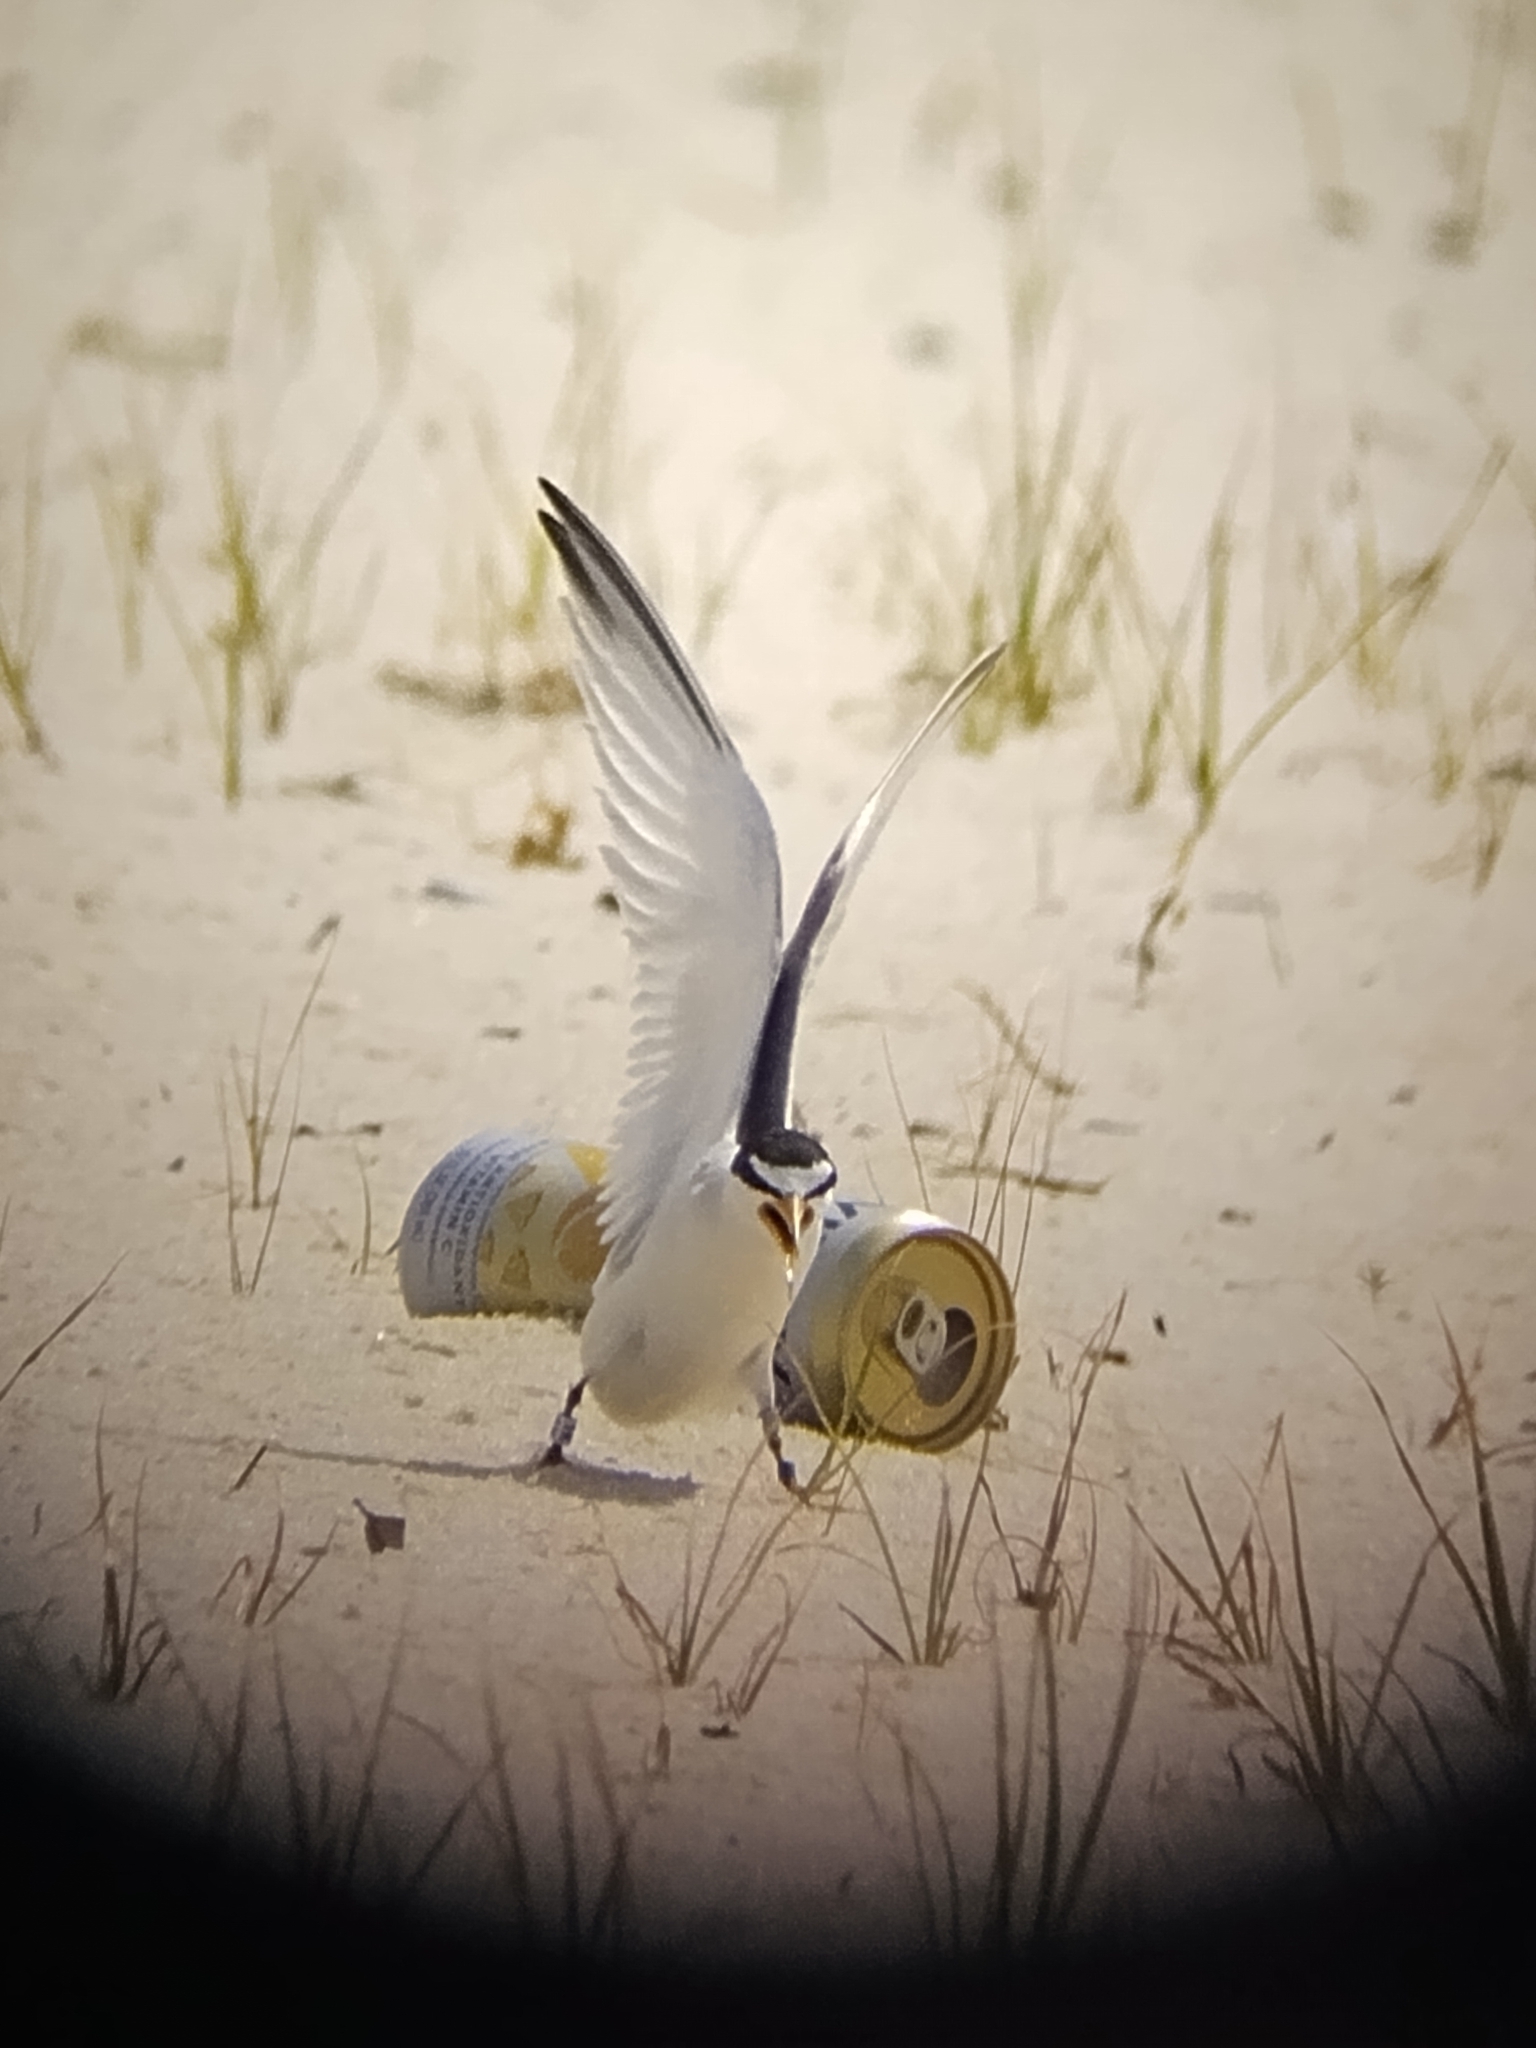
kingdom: Animalia
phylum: Chordata
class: Aves
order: Charadriiformes
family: Laridae
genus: Sternula
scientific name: Sternula antillarum
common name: Least tern
